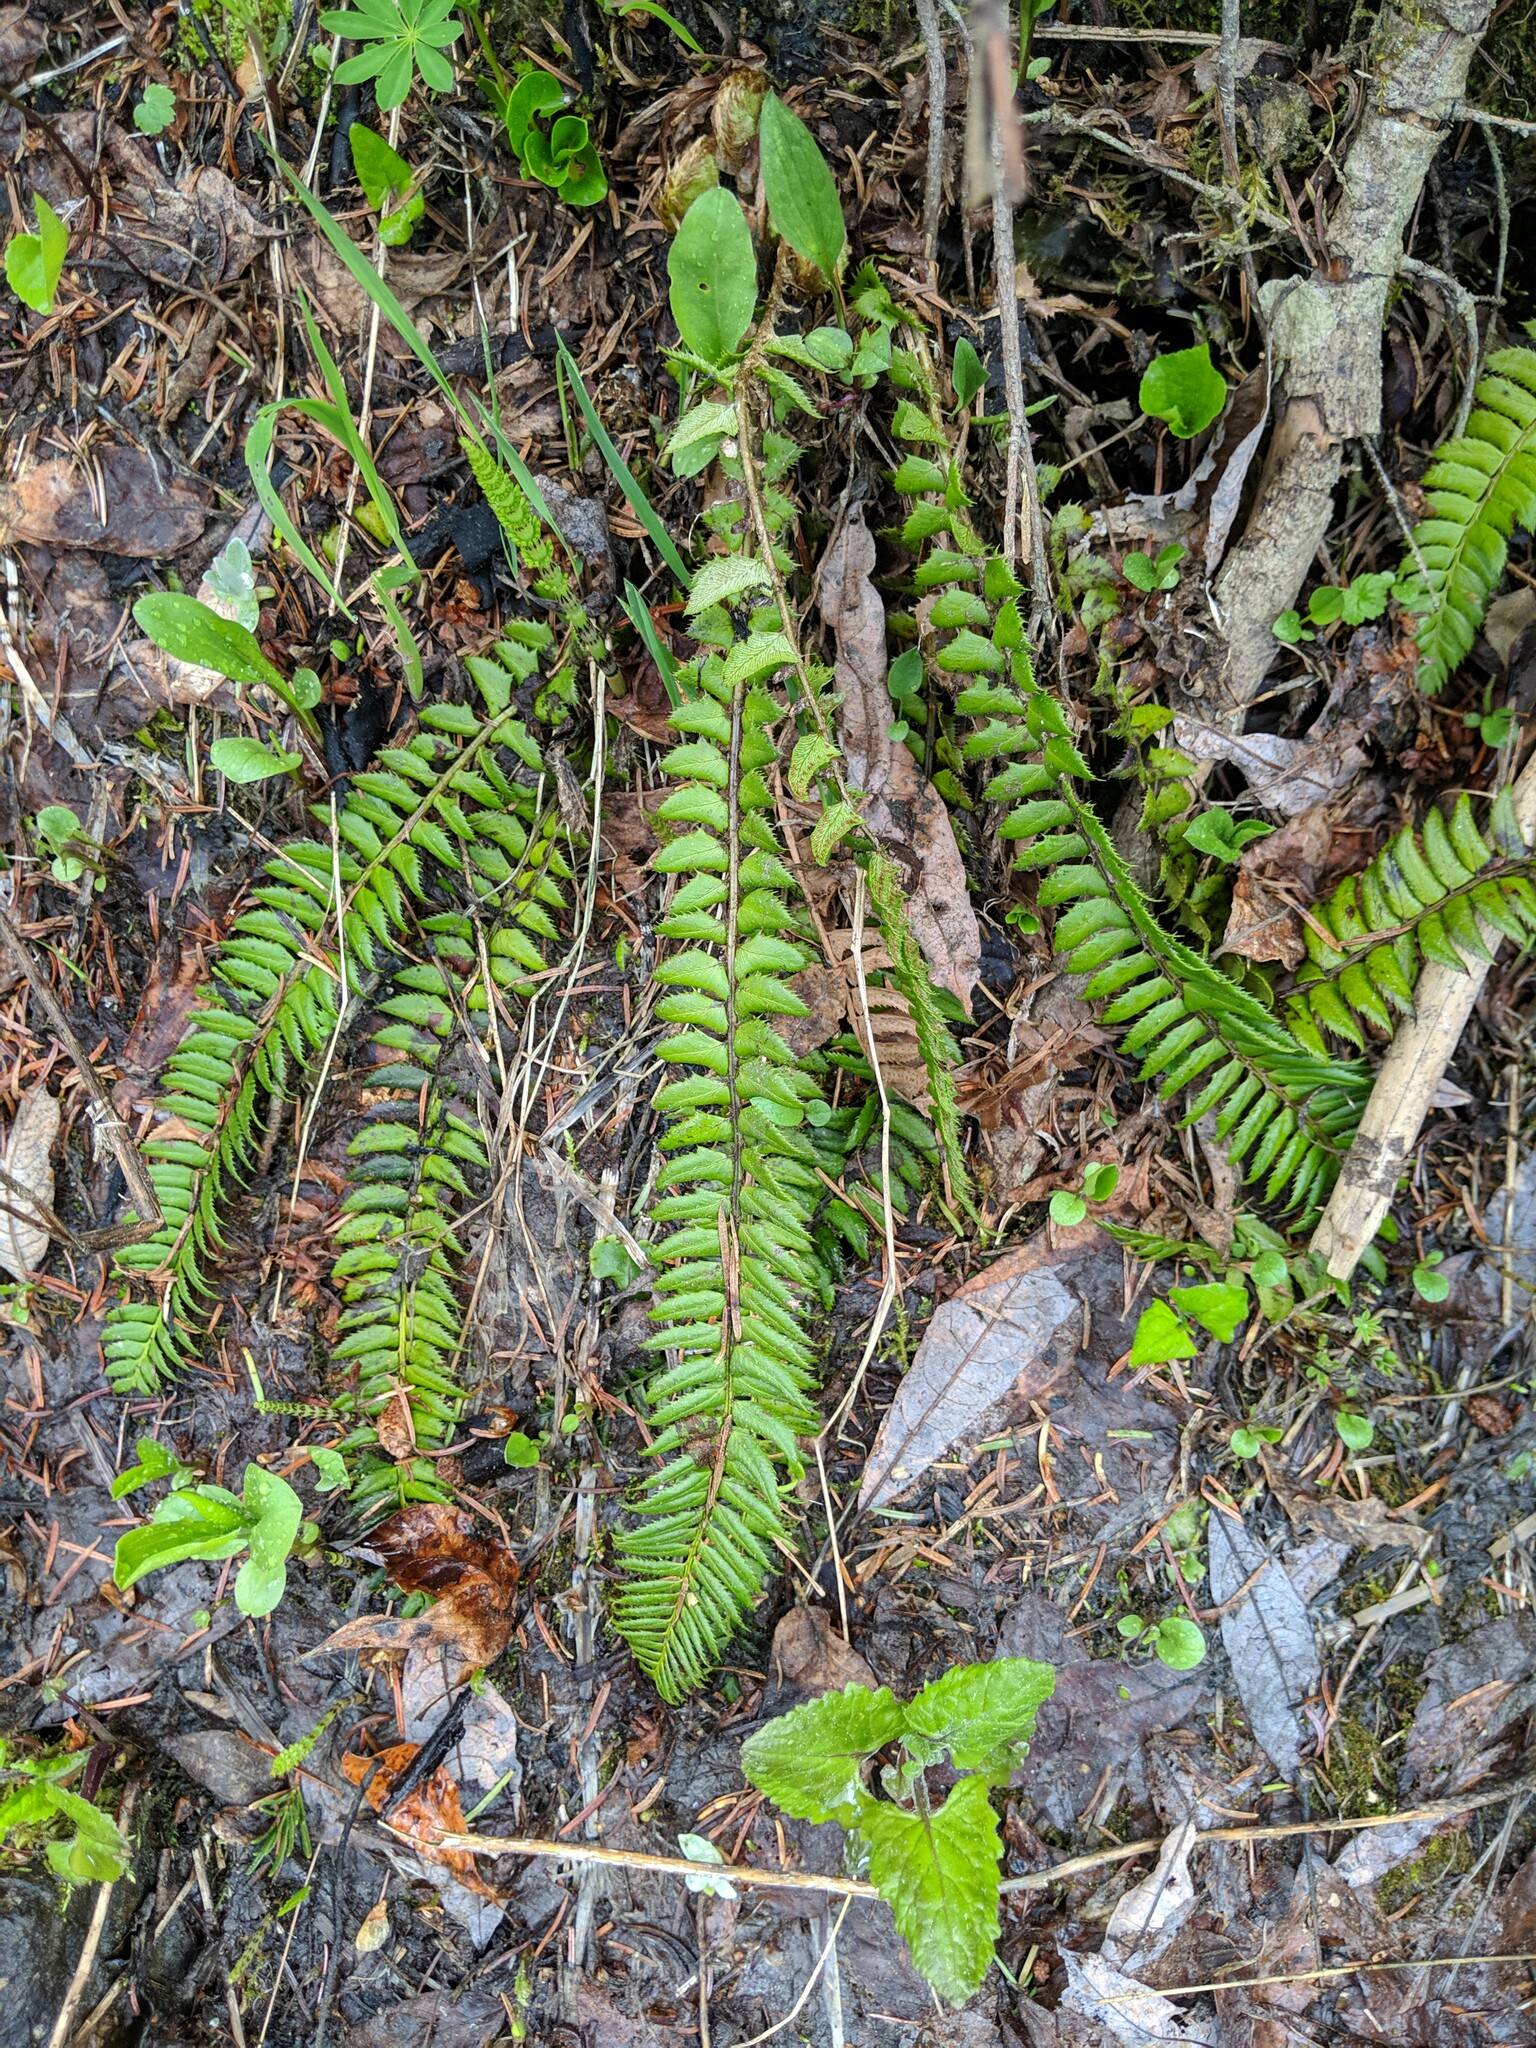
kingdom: Plantae
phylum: Tracheophyta
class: Polypodiopsida
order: Polypodiales
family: Dryopteridaceae
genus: Polystichum
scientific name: Polystichum lonchitis
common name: Holly fern
